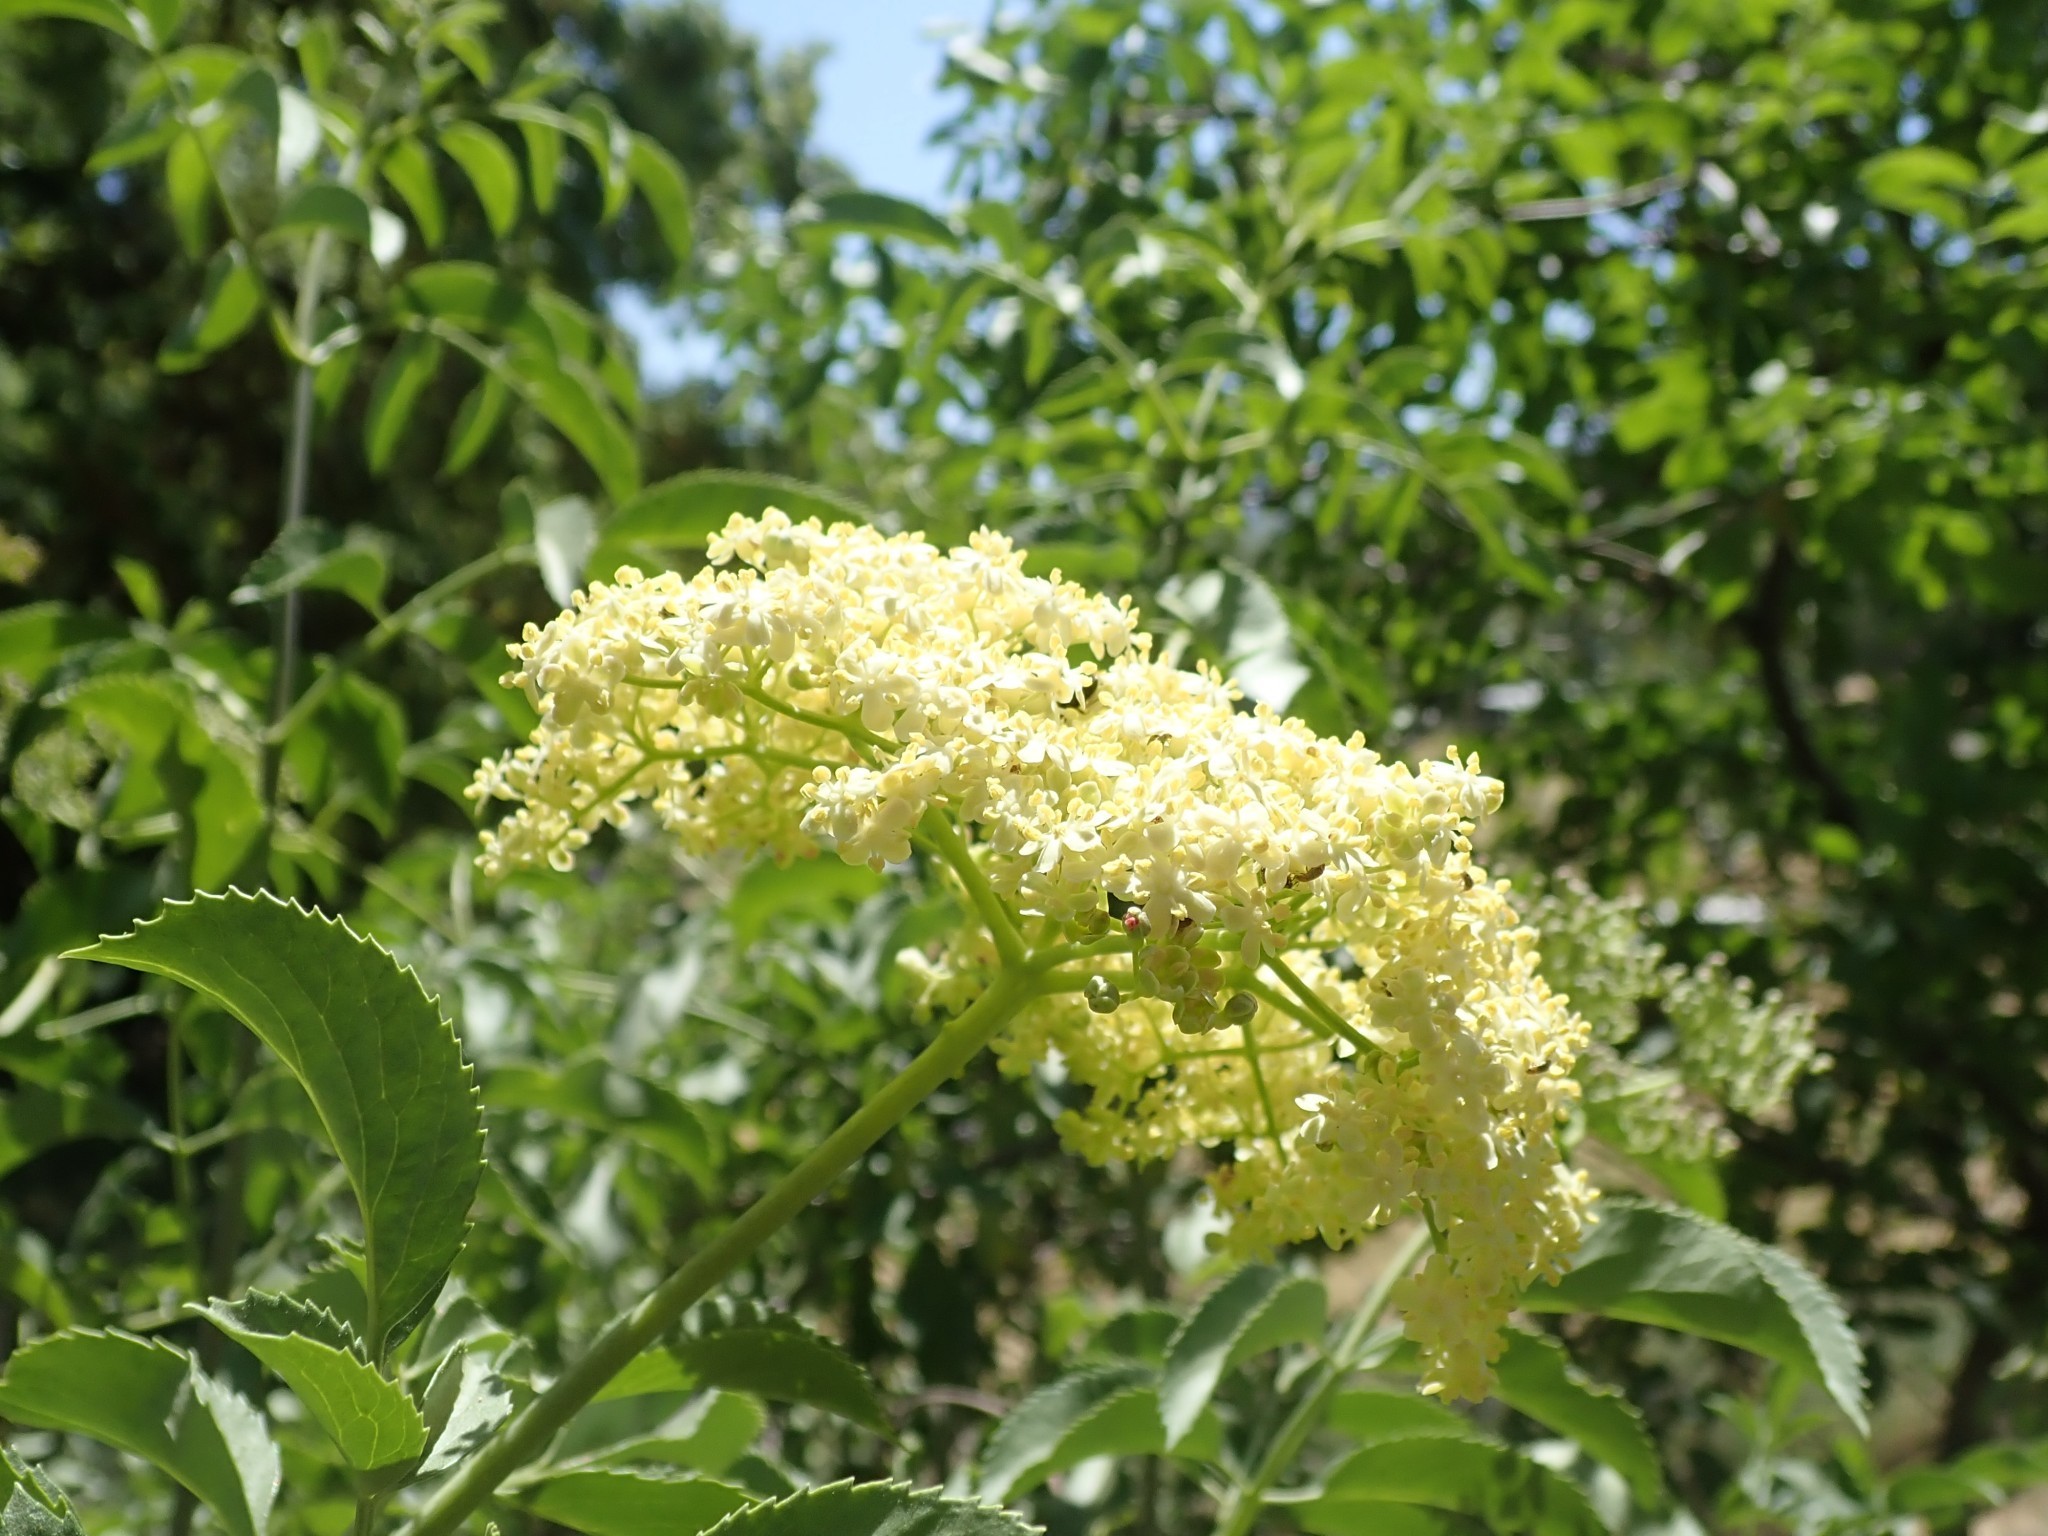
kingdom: Plantae
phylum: Tracheophyta
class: Magnoliopsida
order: Dipsacales
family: Viburnaceae
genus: Sambucus
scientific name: Sambucus cerulea
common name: Blue elder
